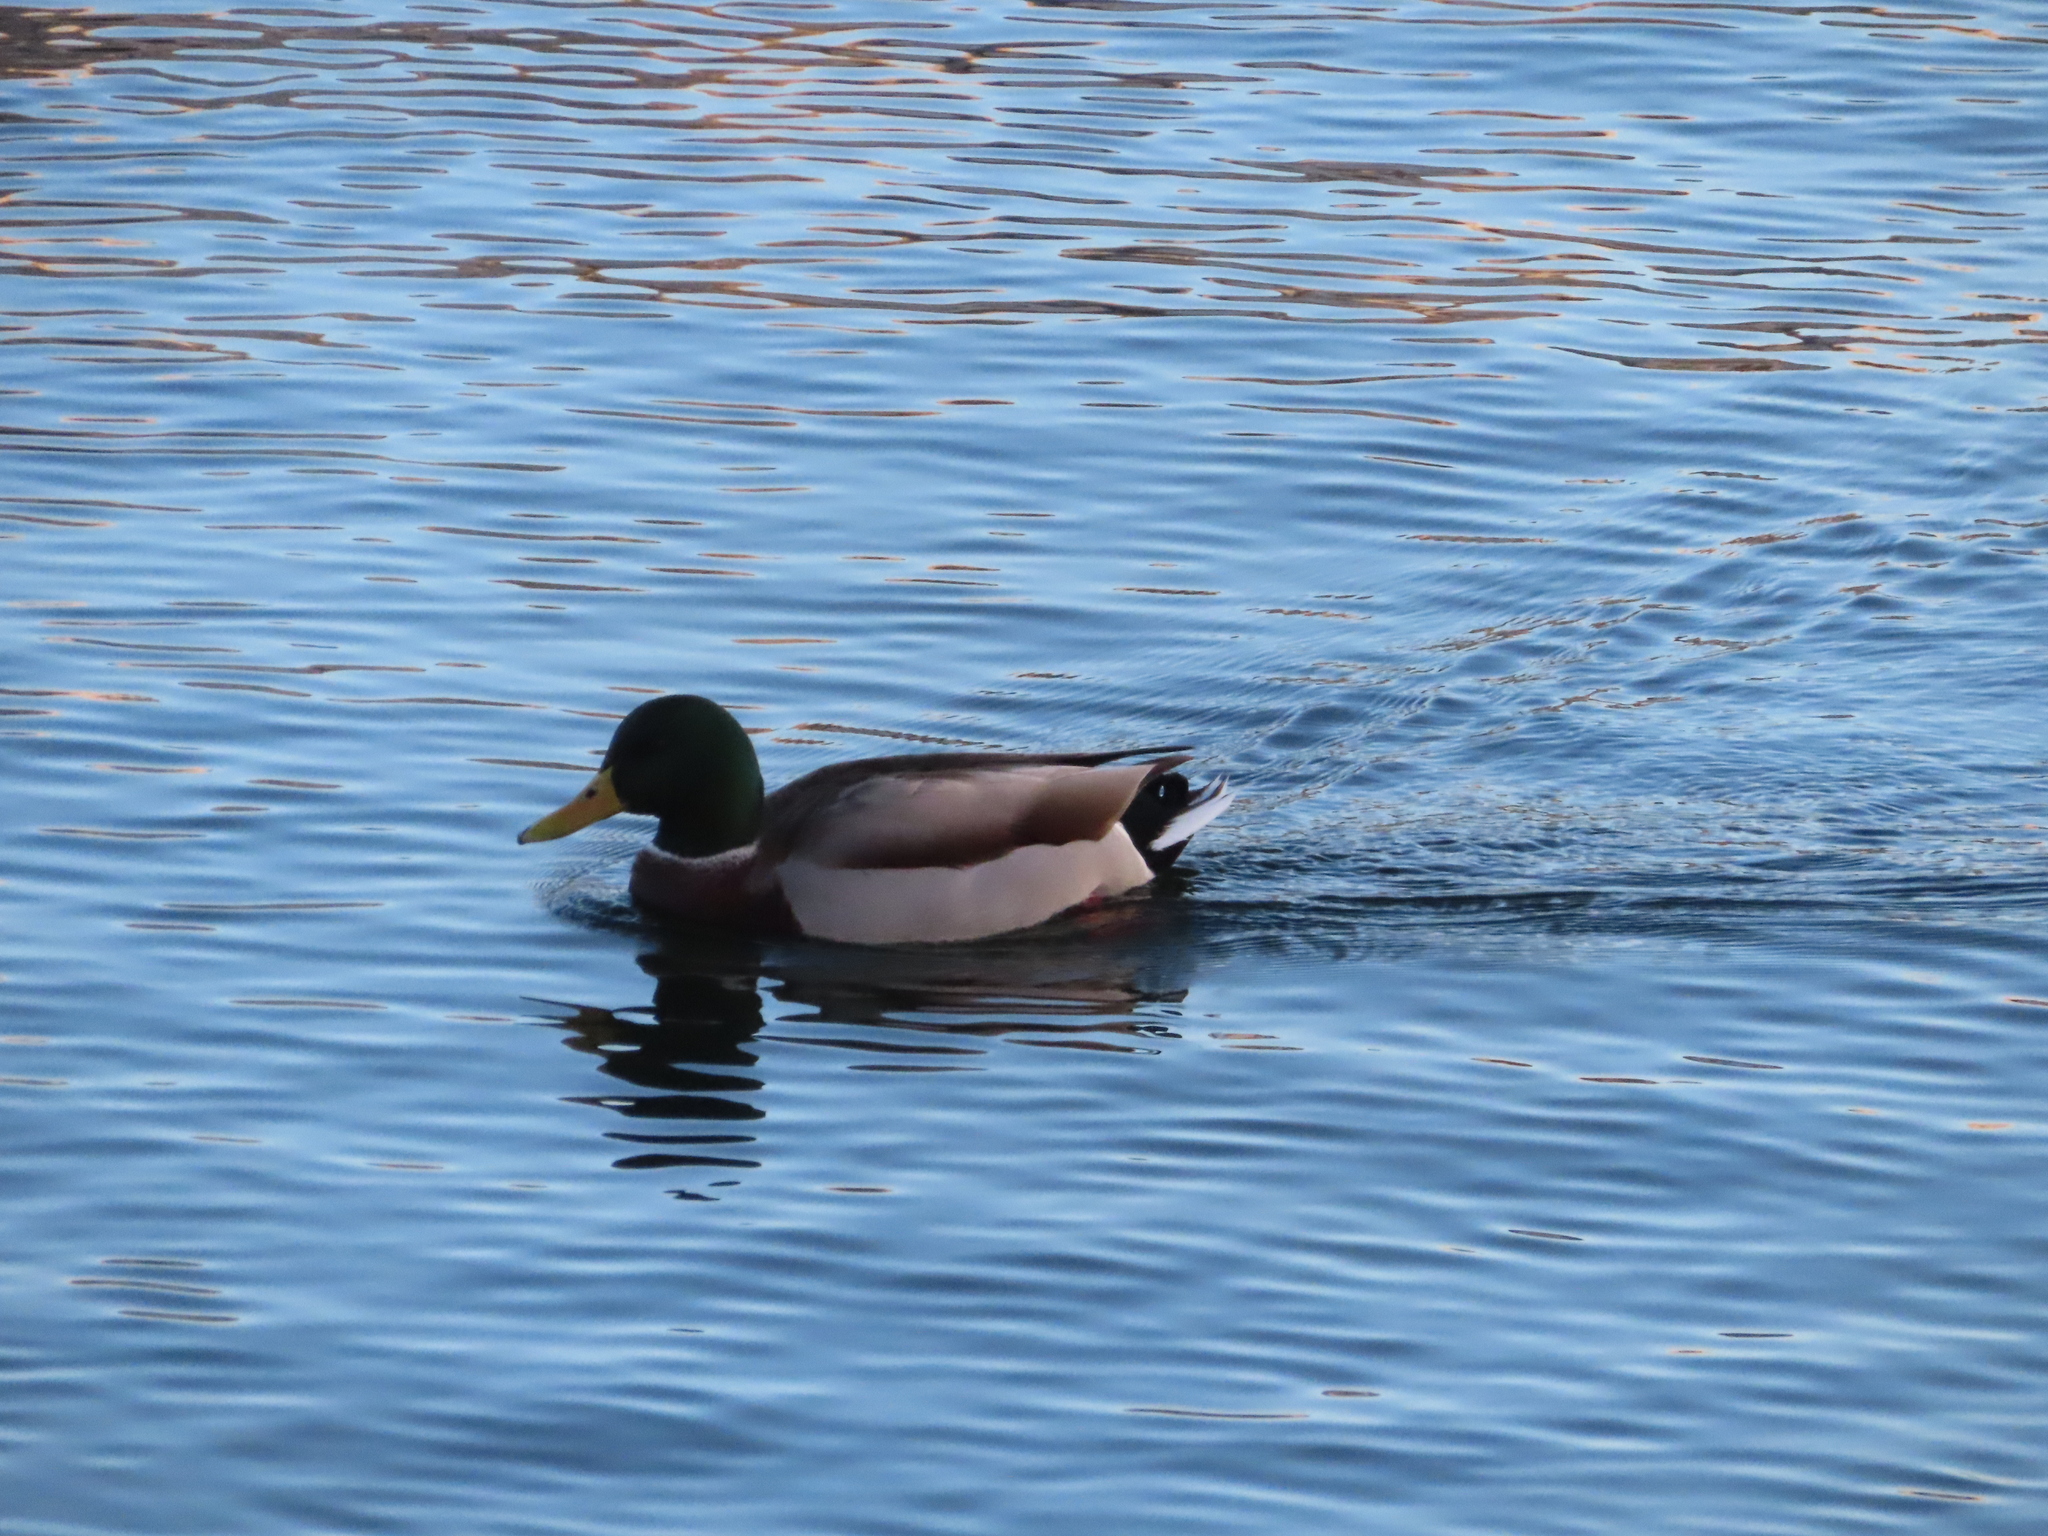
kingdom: Animalia
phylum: Chordata
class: Aves
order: Anseriformes
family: Anatidae
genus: Anas
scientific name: Anas platyrhynchos
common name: Mallard
